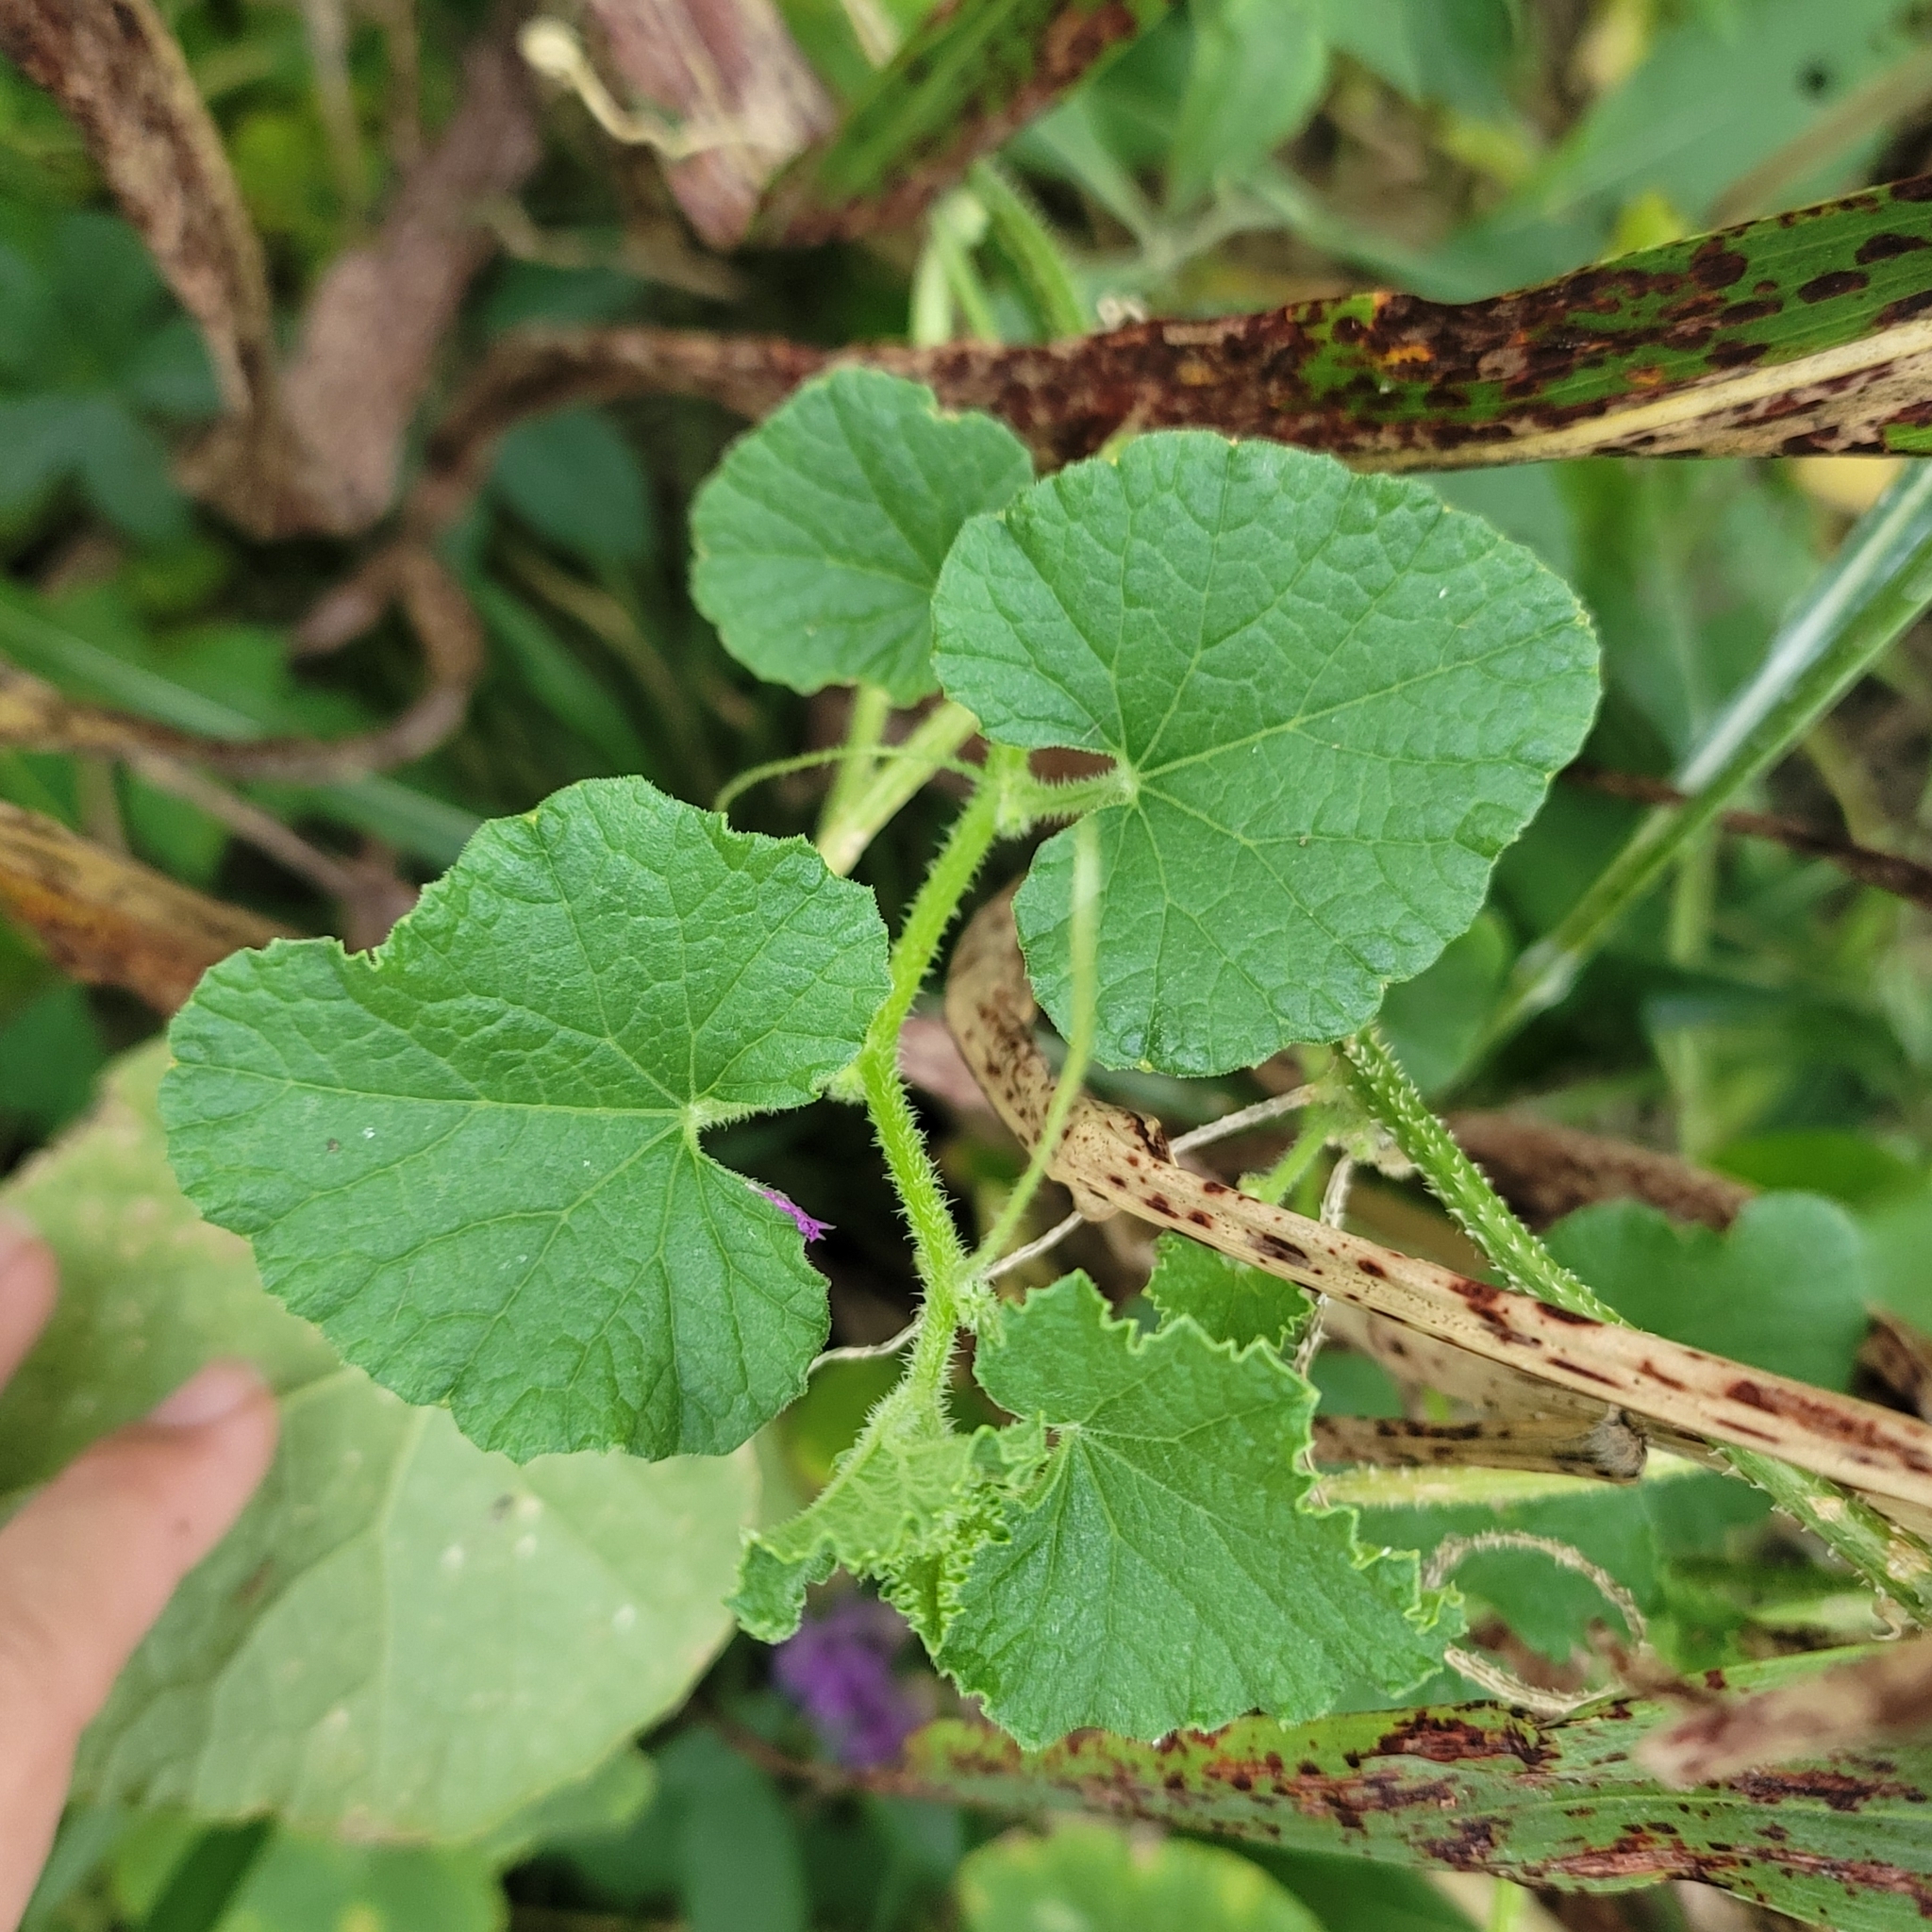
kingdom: Plantae
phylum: Tracheophyta
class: Magnoliopsida
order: Cucurbitales
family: Cucurbitaceae
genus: Cucumis
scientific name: Cucumis melo
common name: Melon
